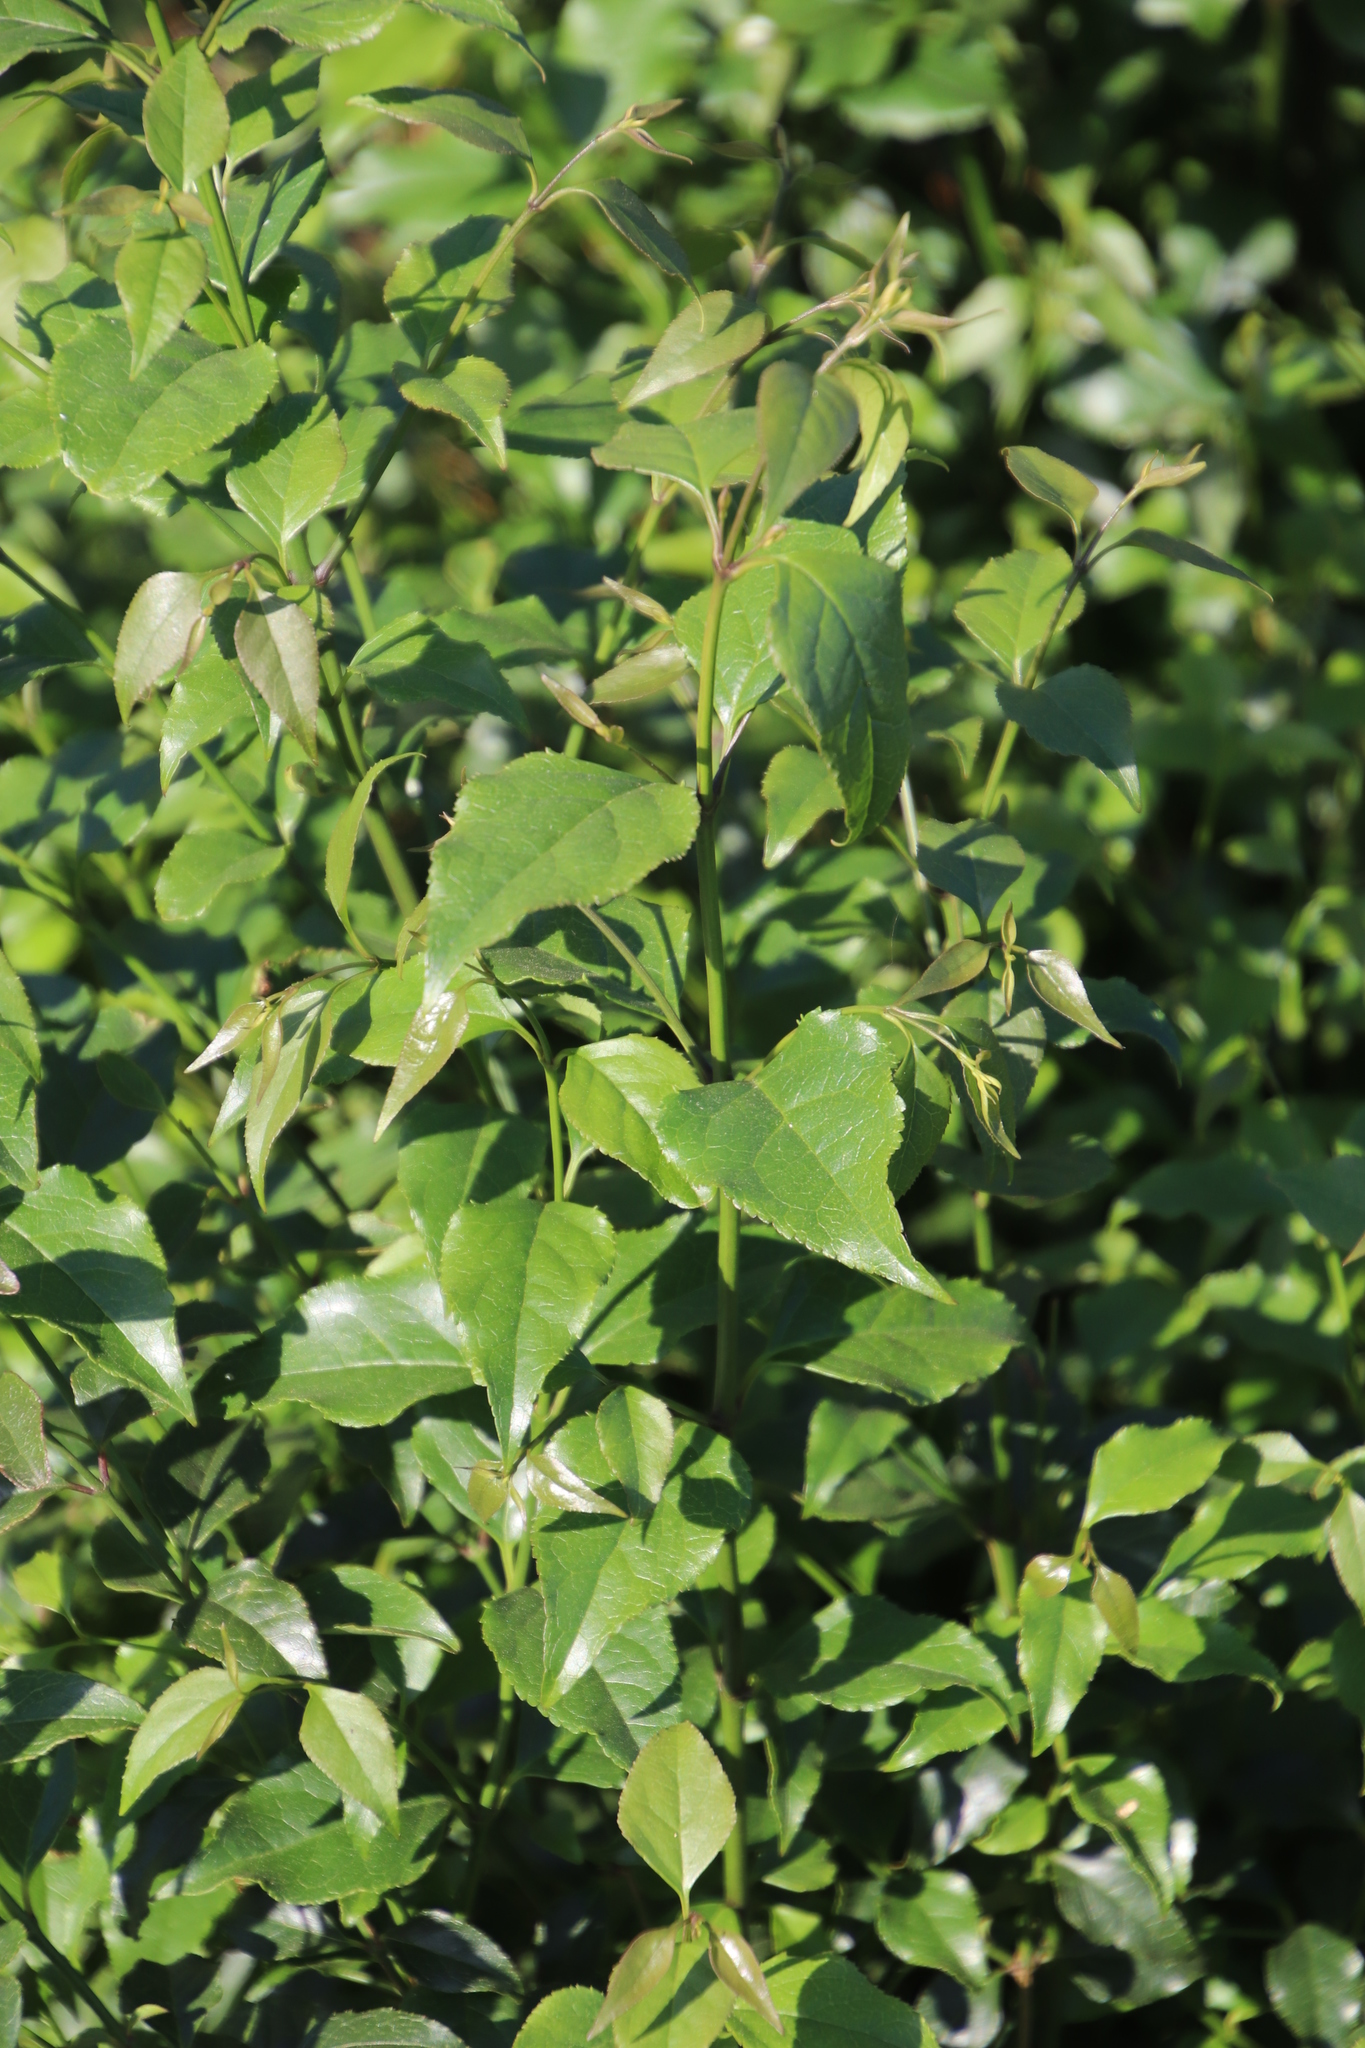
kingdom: Plantae
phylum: Tracheophyta
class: Magnoliopsida
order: Lamiales
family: Stilbaceae
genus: Halleria
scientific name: Halleria lucida
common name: Tree fuschia
